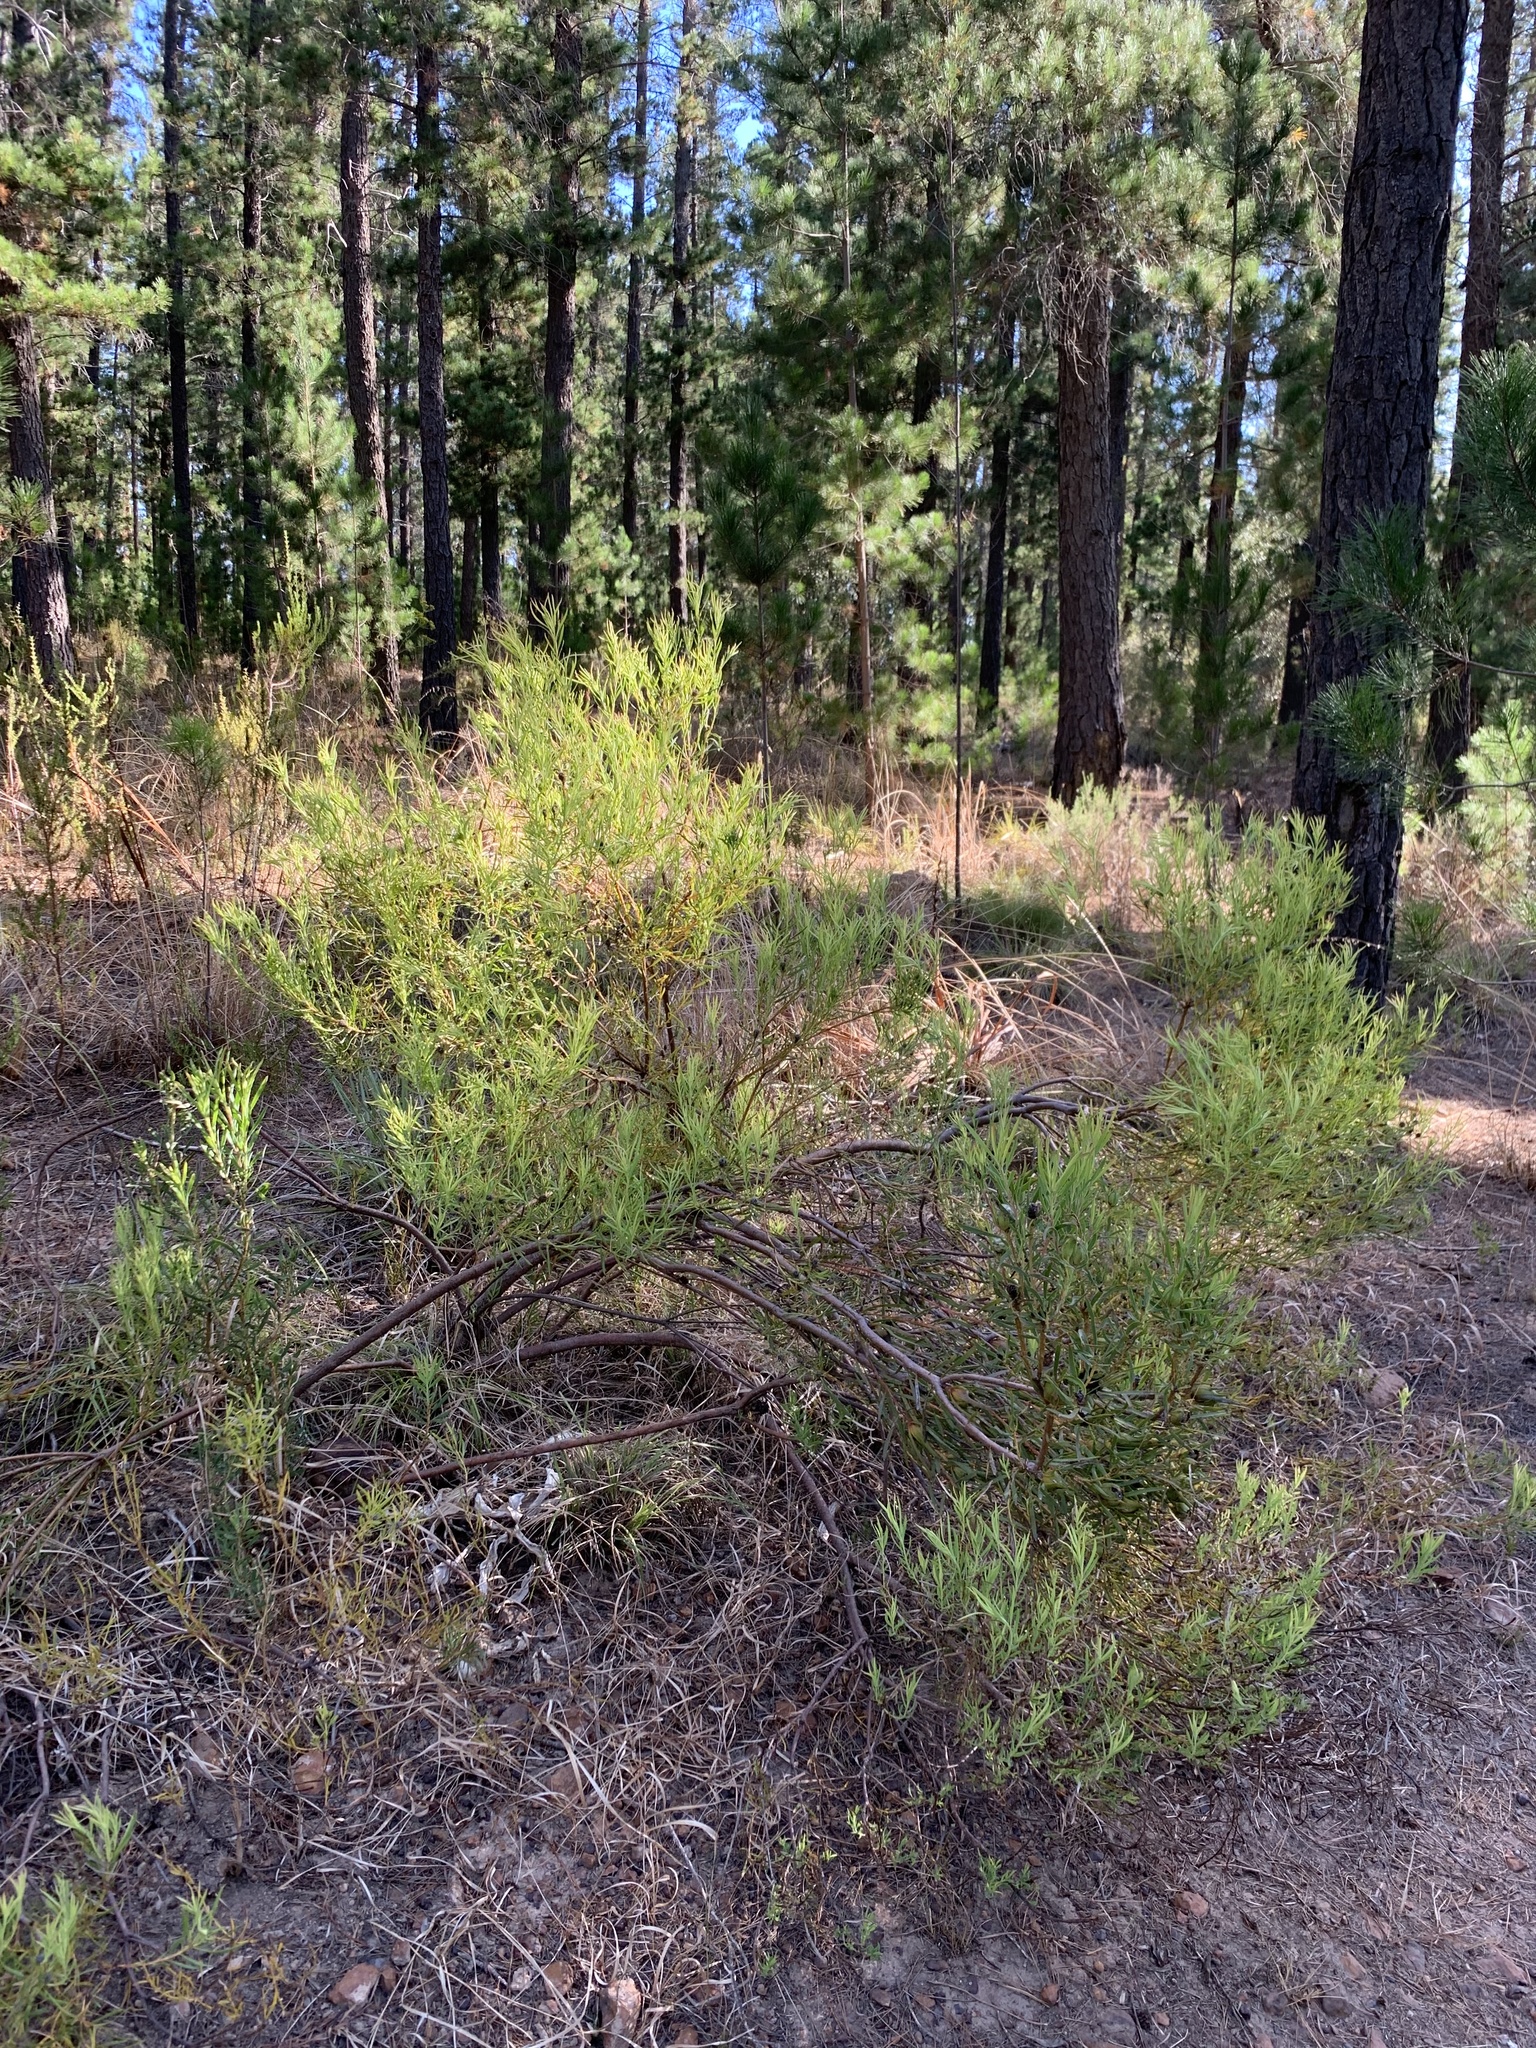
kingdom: Plantae
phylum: Tracheophyta
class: Magnoliopsida
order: Proteales
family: Proteaceae
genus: Leucadendron
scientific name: Leucadendron salignum
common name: Common sunshine conebush
